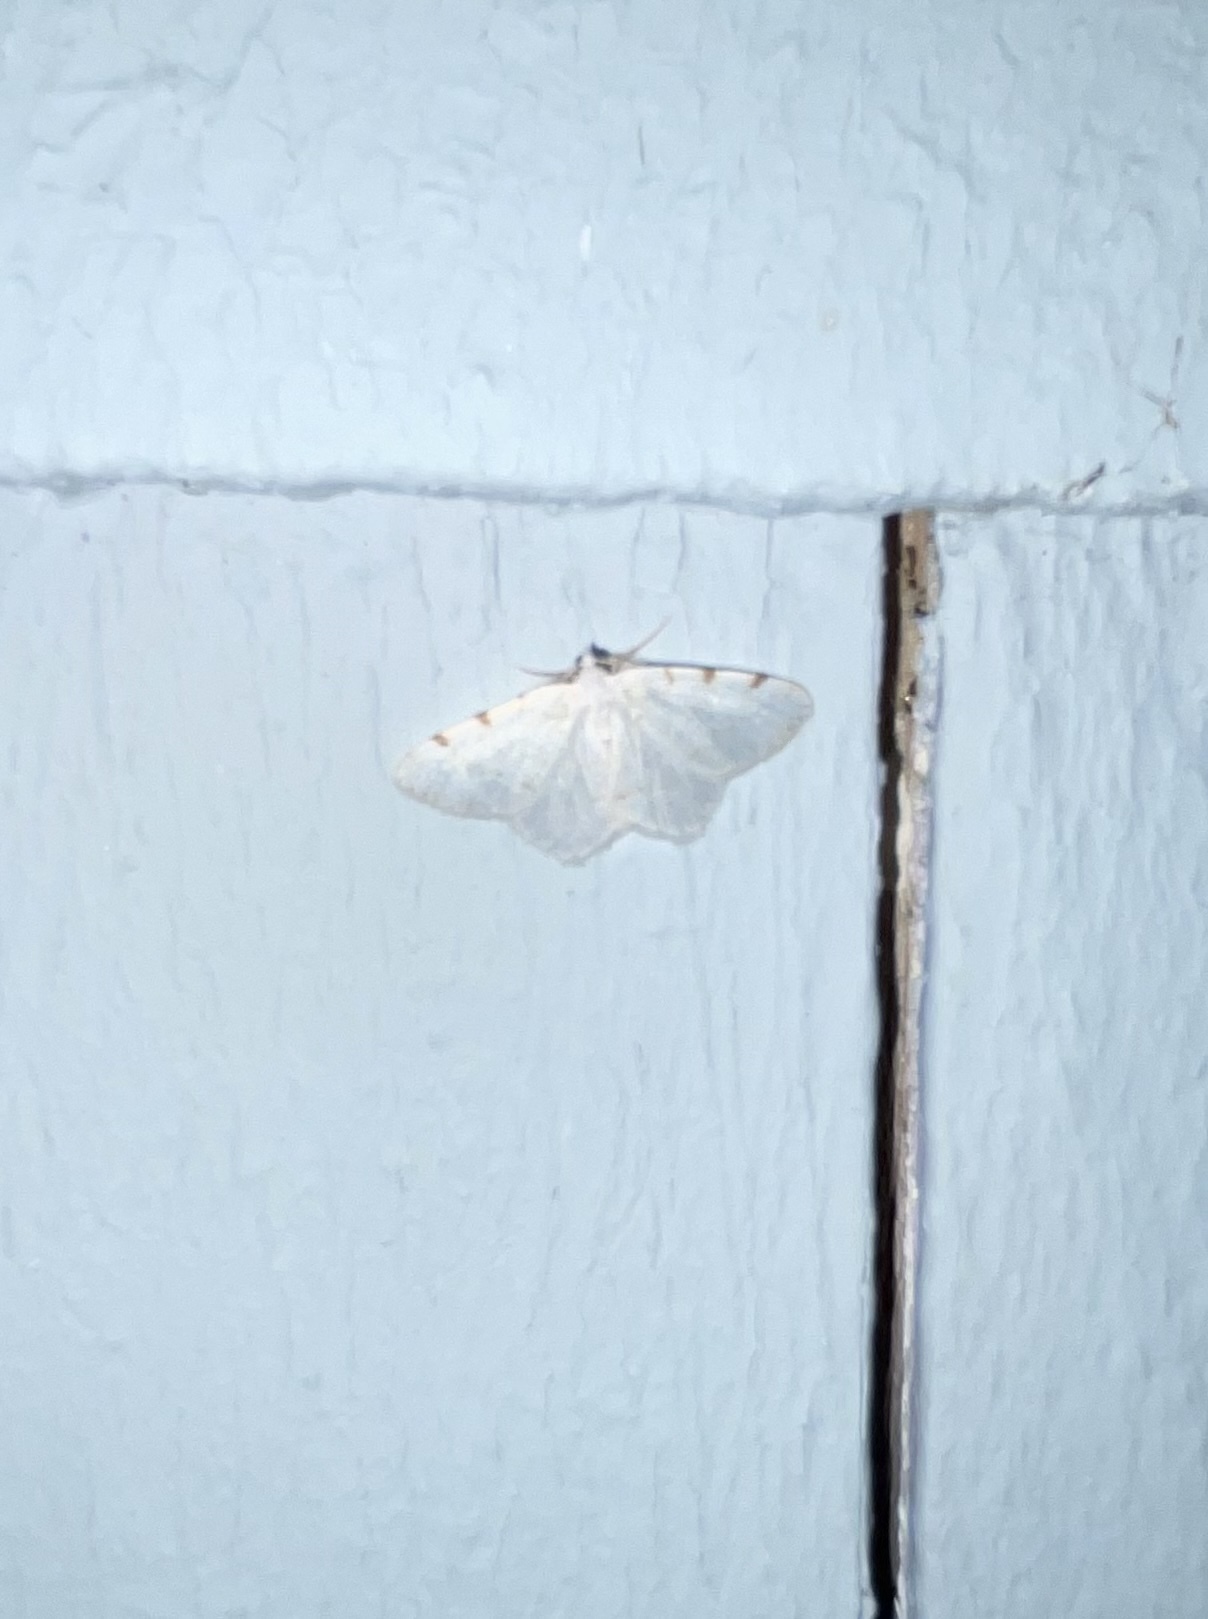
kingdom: Animalia
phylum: Arthropoda
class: Insecta
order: Lepidoptera
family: Geometridae
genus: Macaria
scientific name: Macaria pustularia
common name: Lesser maple spanworm moth
